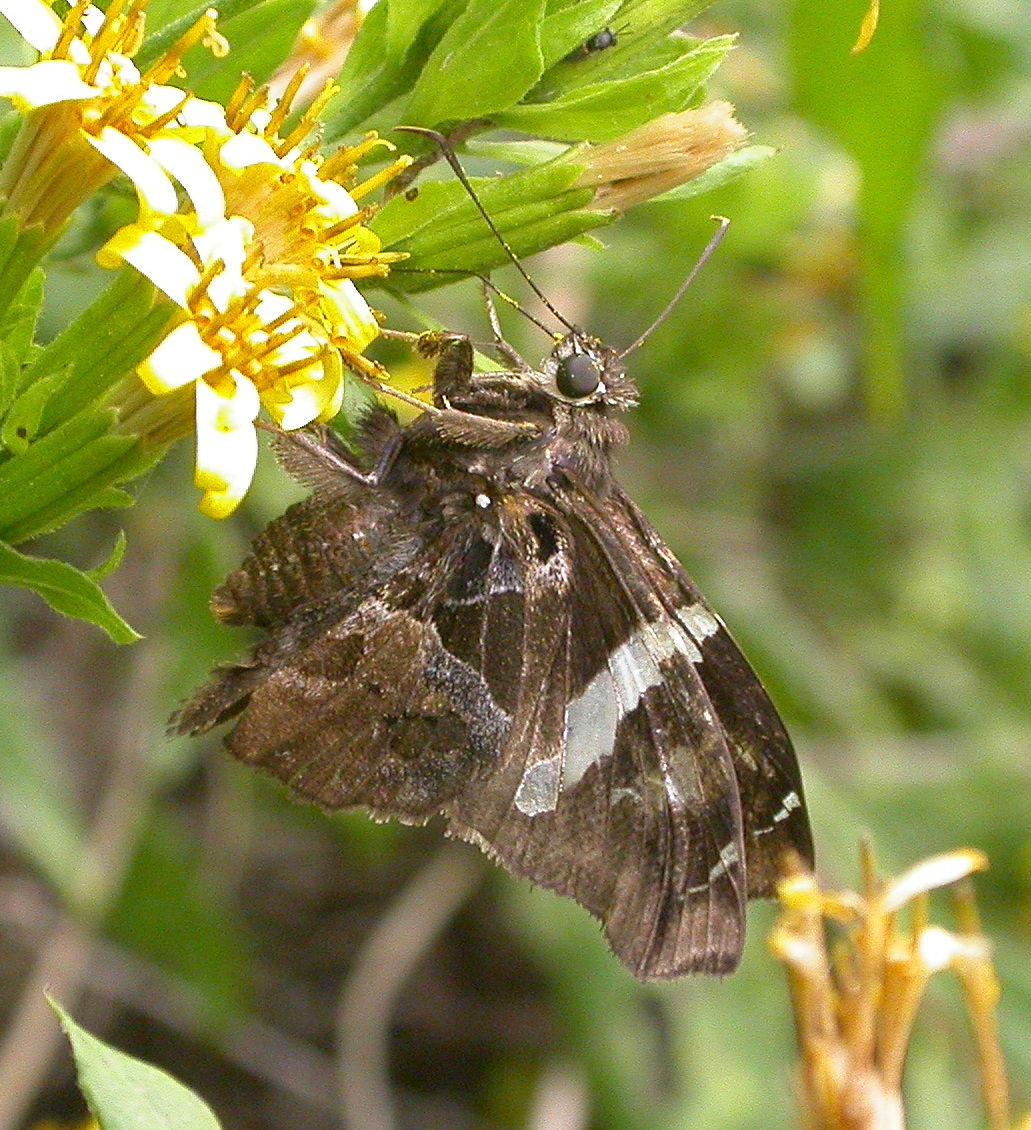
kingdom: Animalia
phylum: Arthropoda
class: Insecta
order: Lepidoptera
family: Hesperiidae
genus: Spathilepia
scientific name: Spathilepia clonius
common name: Falcate skipper
